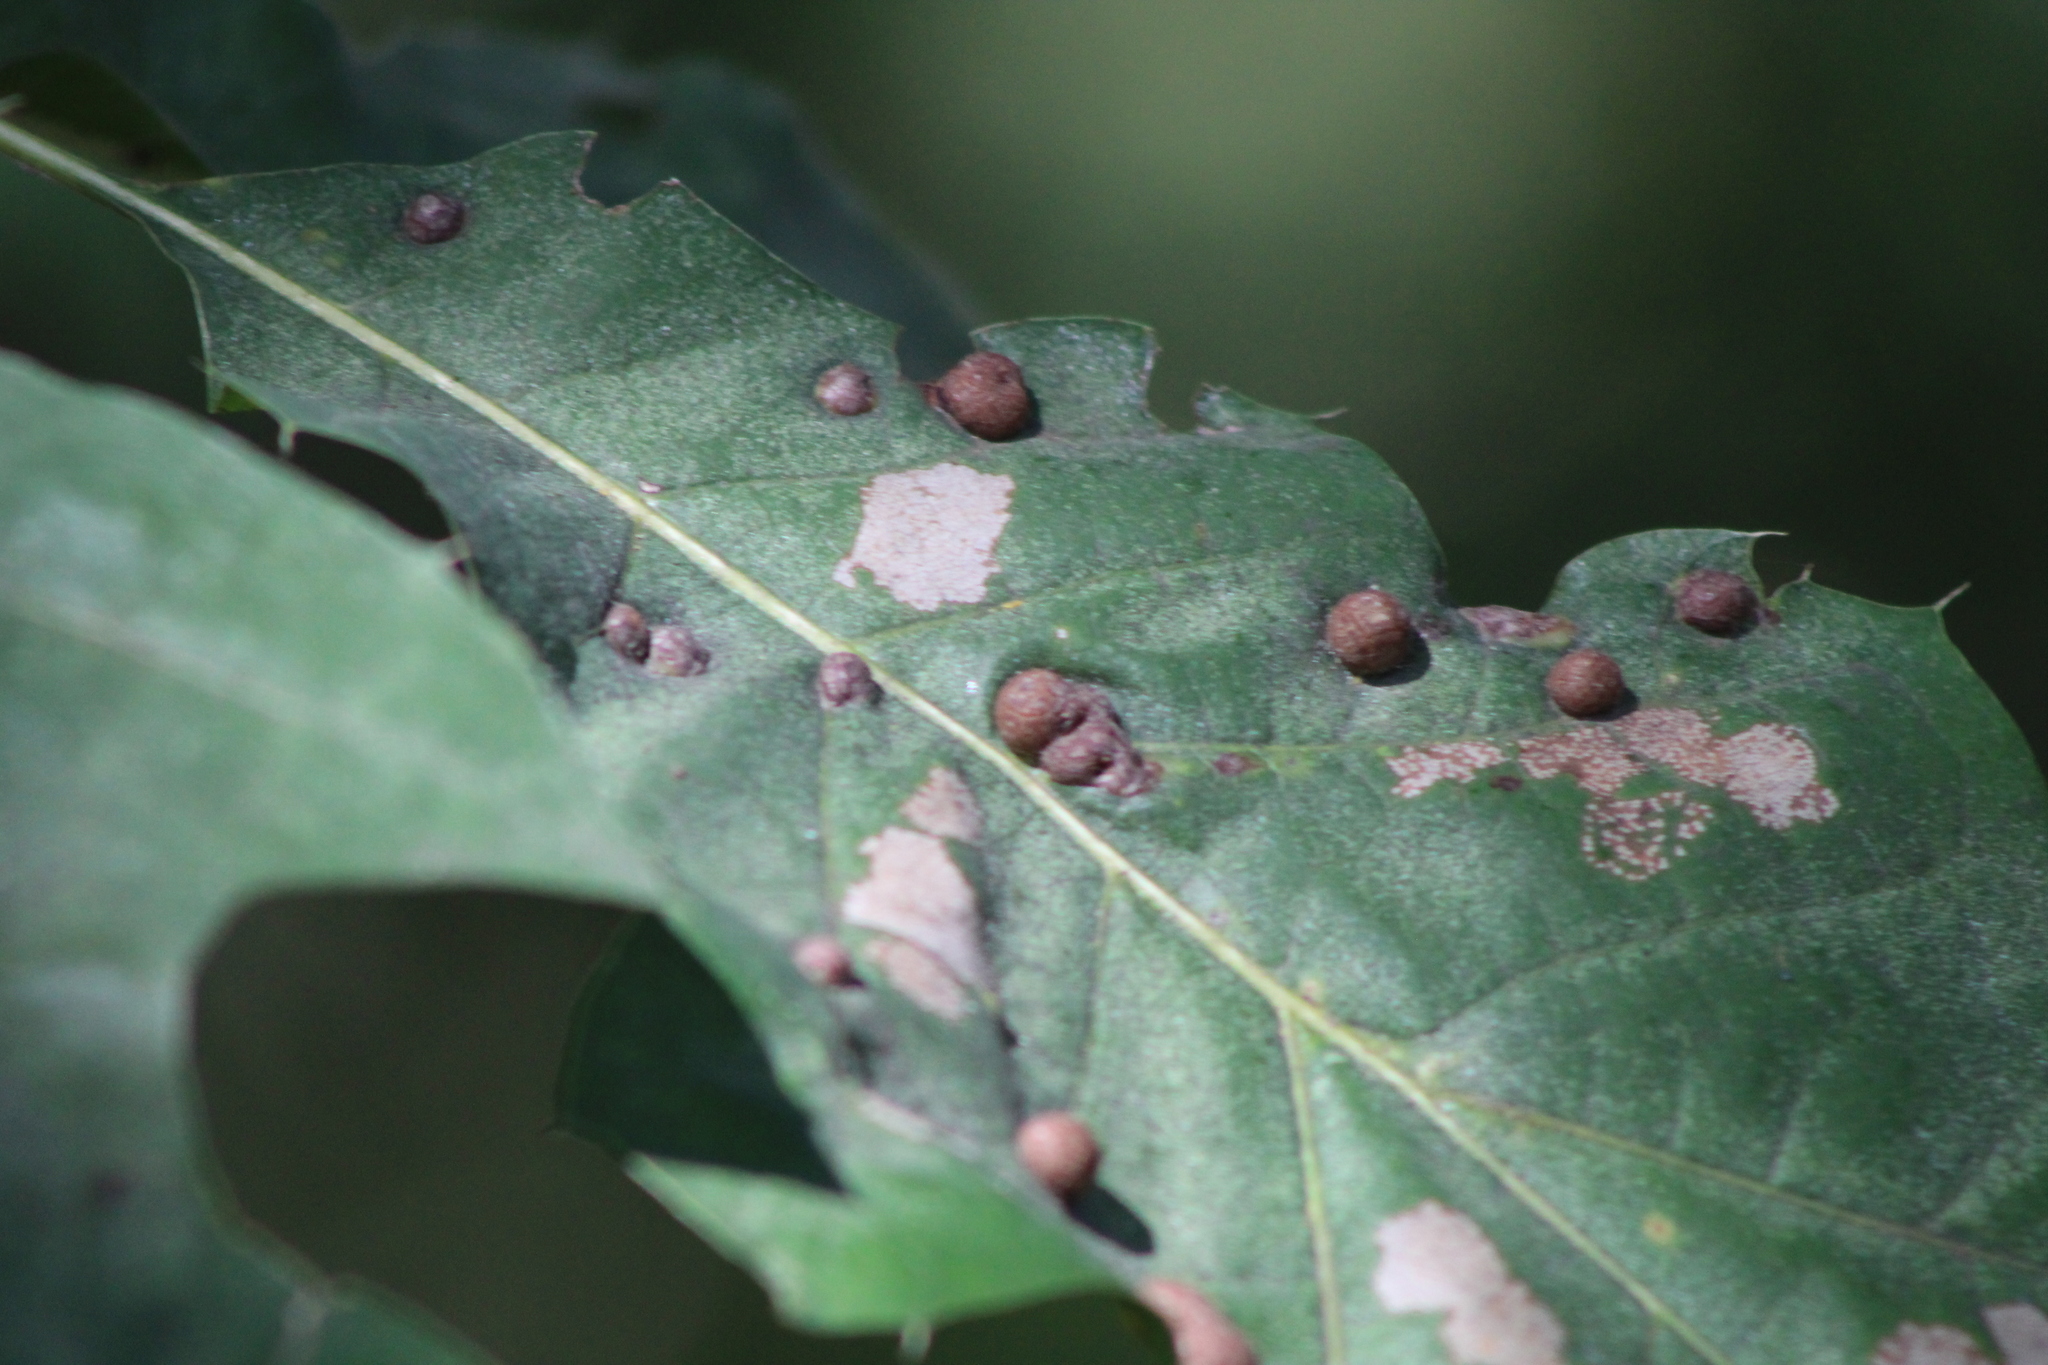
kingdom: Animalia
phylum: Arthropoda
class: Insecta
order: Diptera
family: Cecidomyiidae
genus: Polystepha
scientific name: Polystepha pilulae
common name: Oak leaf gall midge
